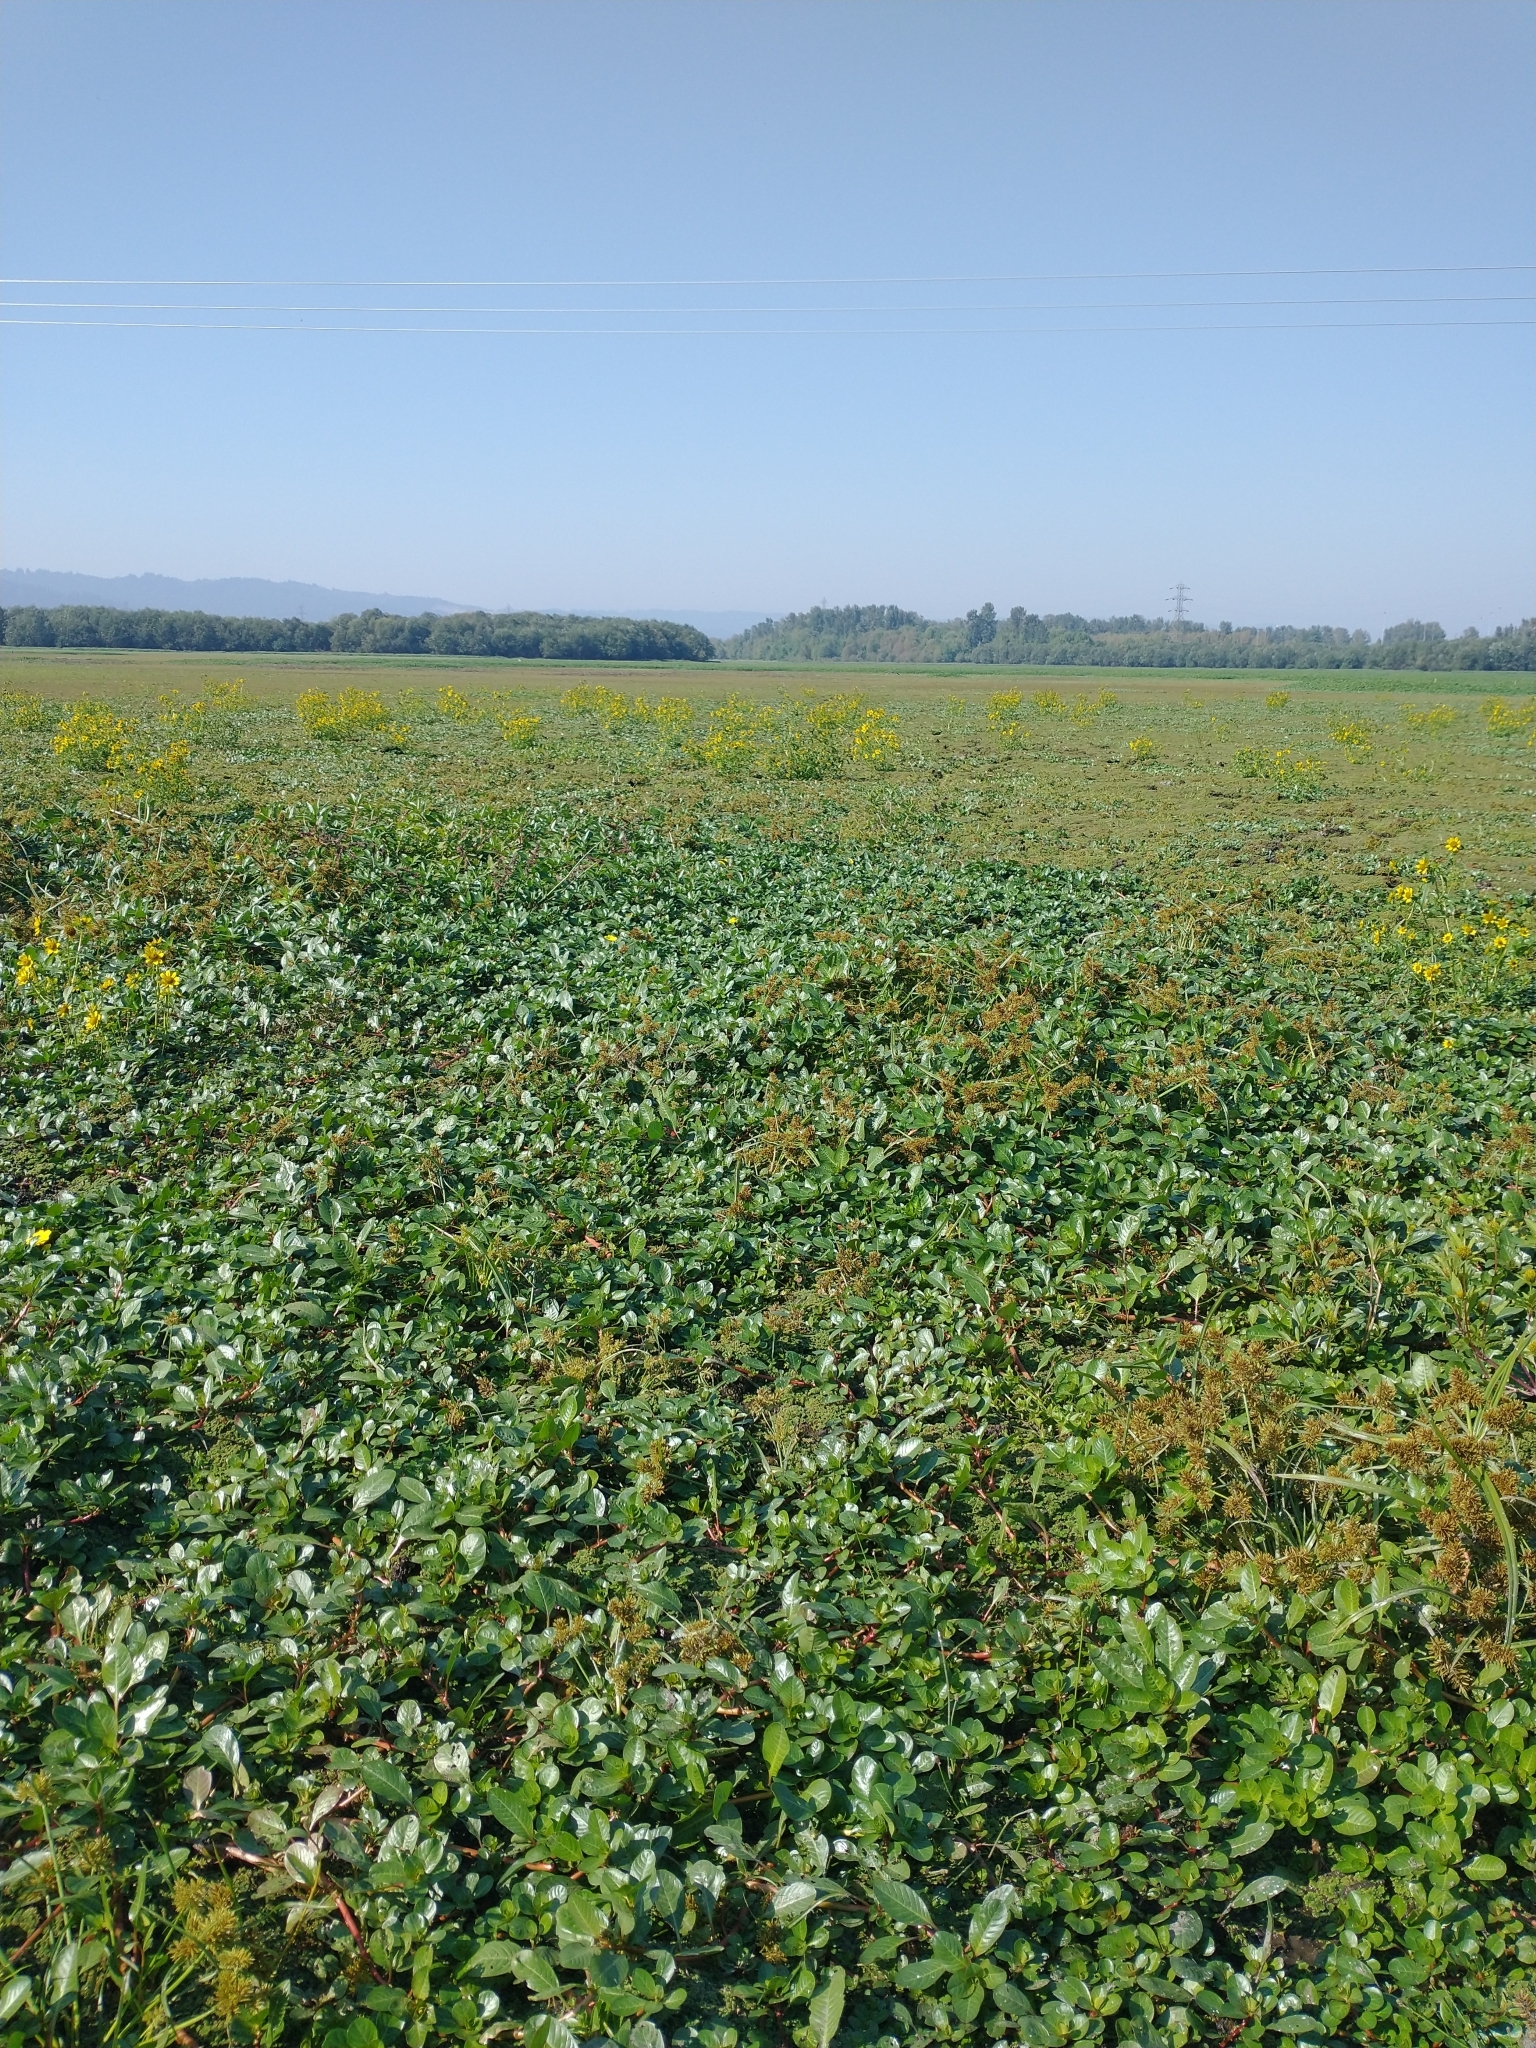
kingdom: Plantae
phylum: Tracheophyta
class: Magnoliopsida
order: Myrtales
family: Onagraceae
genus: Ludwigia
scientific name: Ludwigia peploides
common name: Floating primrose-willow
